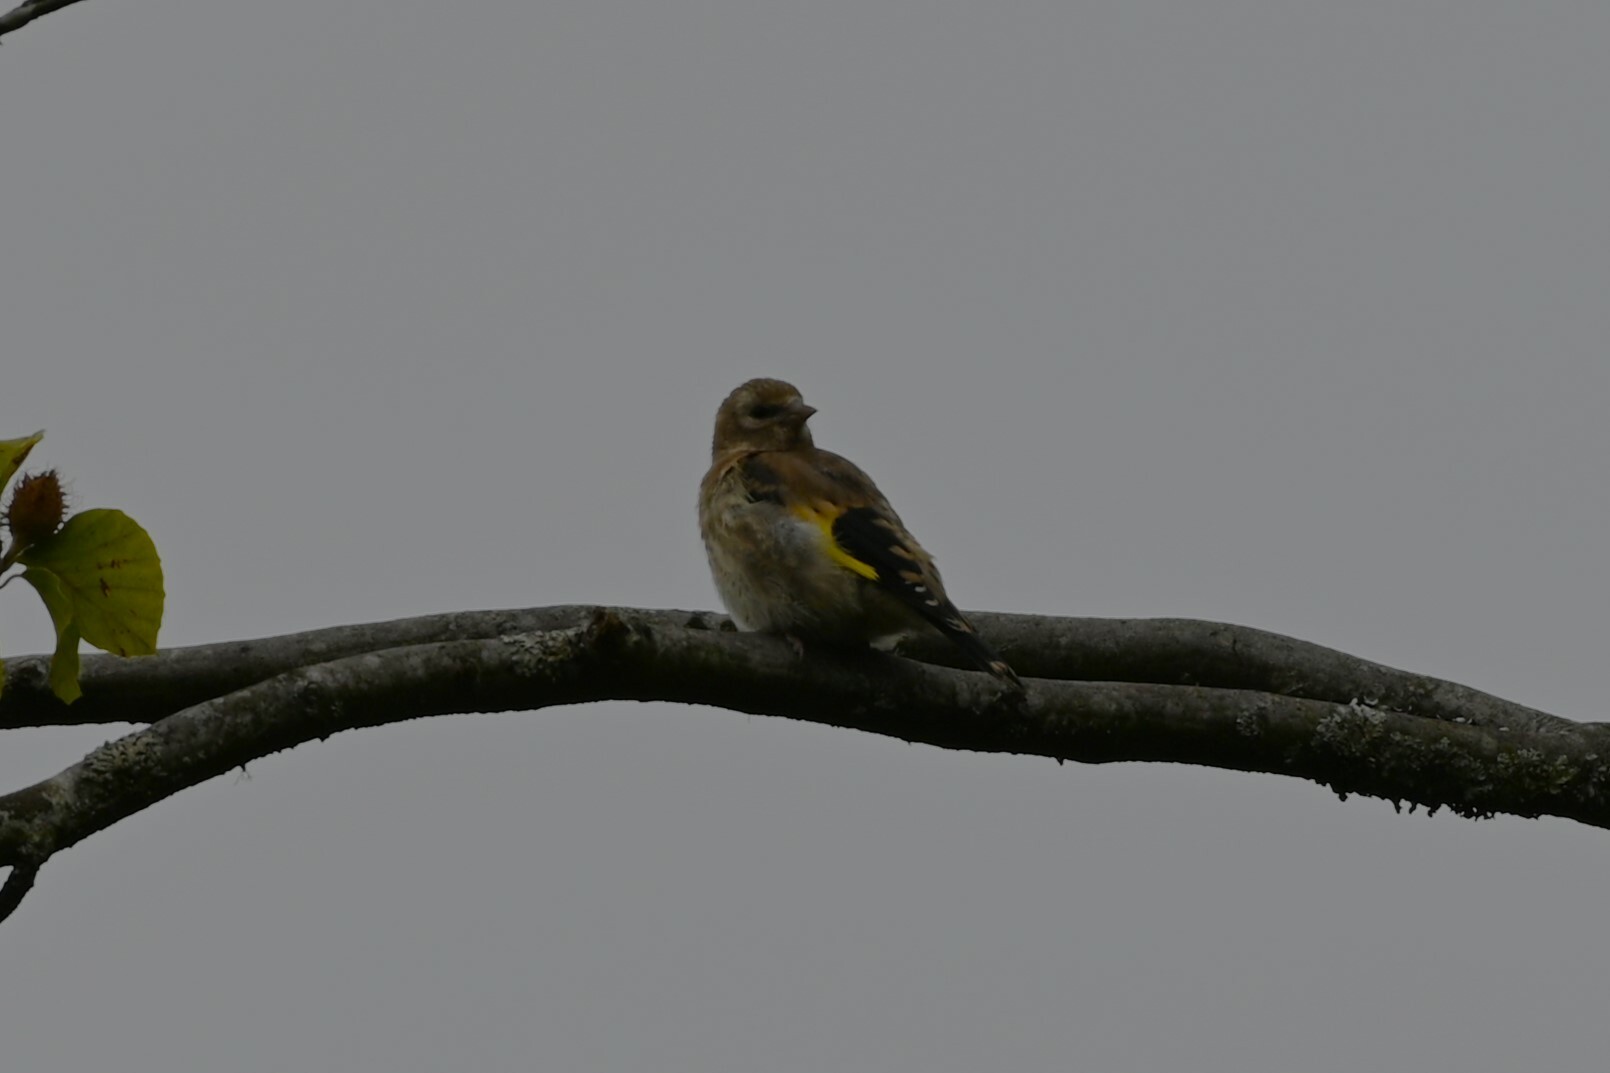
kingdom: Animalia
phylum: Chordata
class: Aves
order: Passeriformes
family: Fringillidae
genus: Carduelis
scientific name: Carduelis carduelis
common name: European goldfinch
